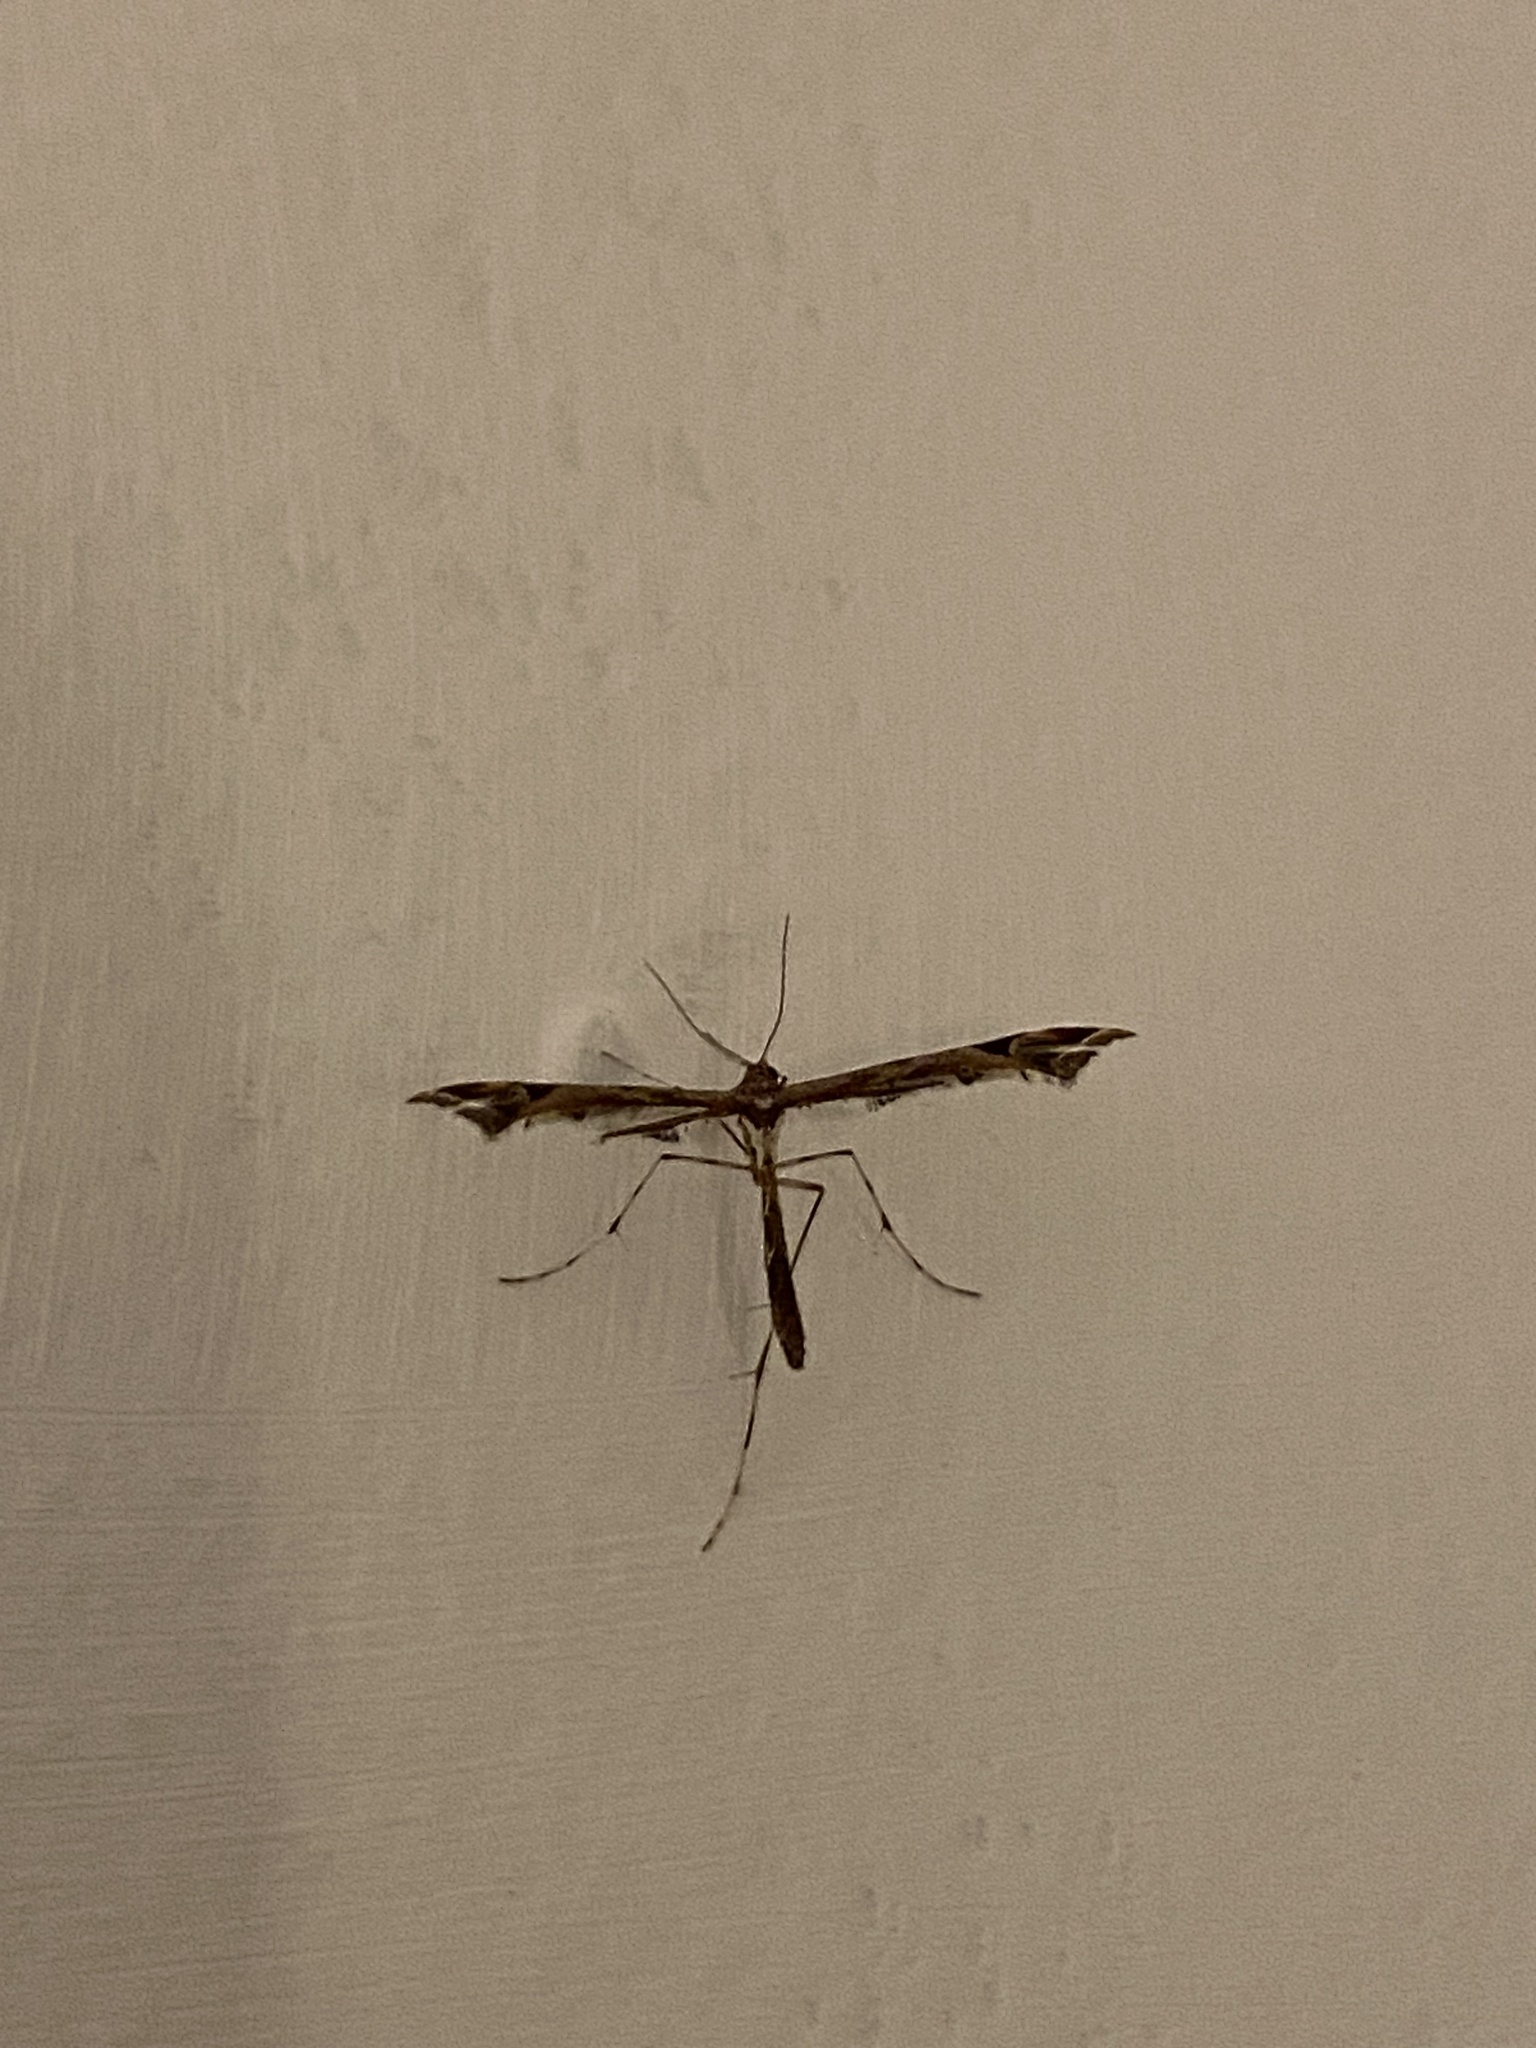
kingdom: Animalia
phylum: Arthropoda
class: Insecta
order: Lepidoptera
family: Pterophoridae
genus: Amblyptilia
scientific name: Amblyptilia acanthadactyla
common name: Beautiful plume
